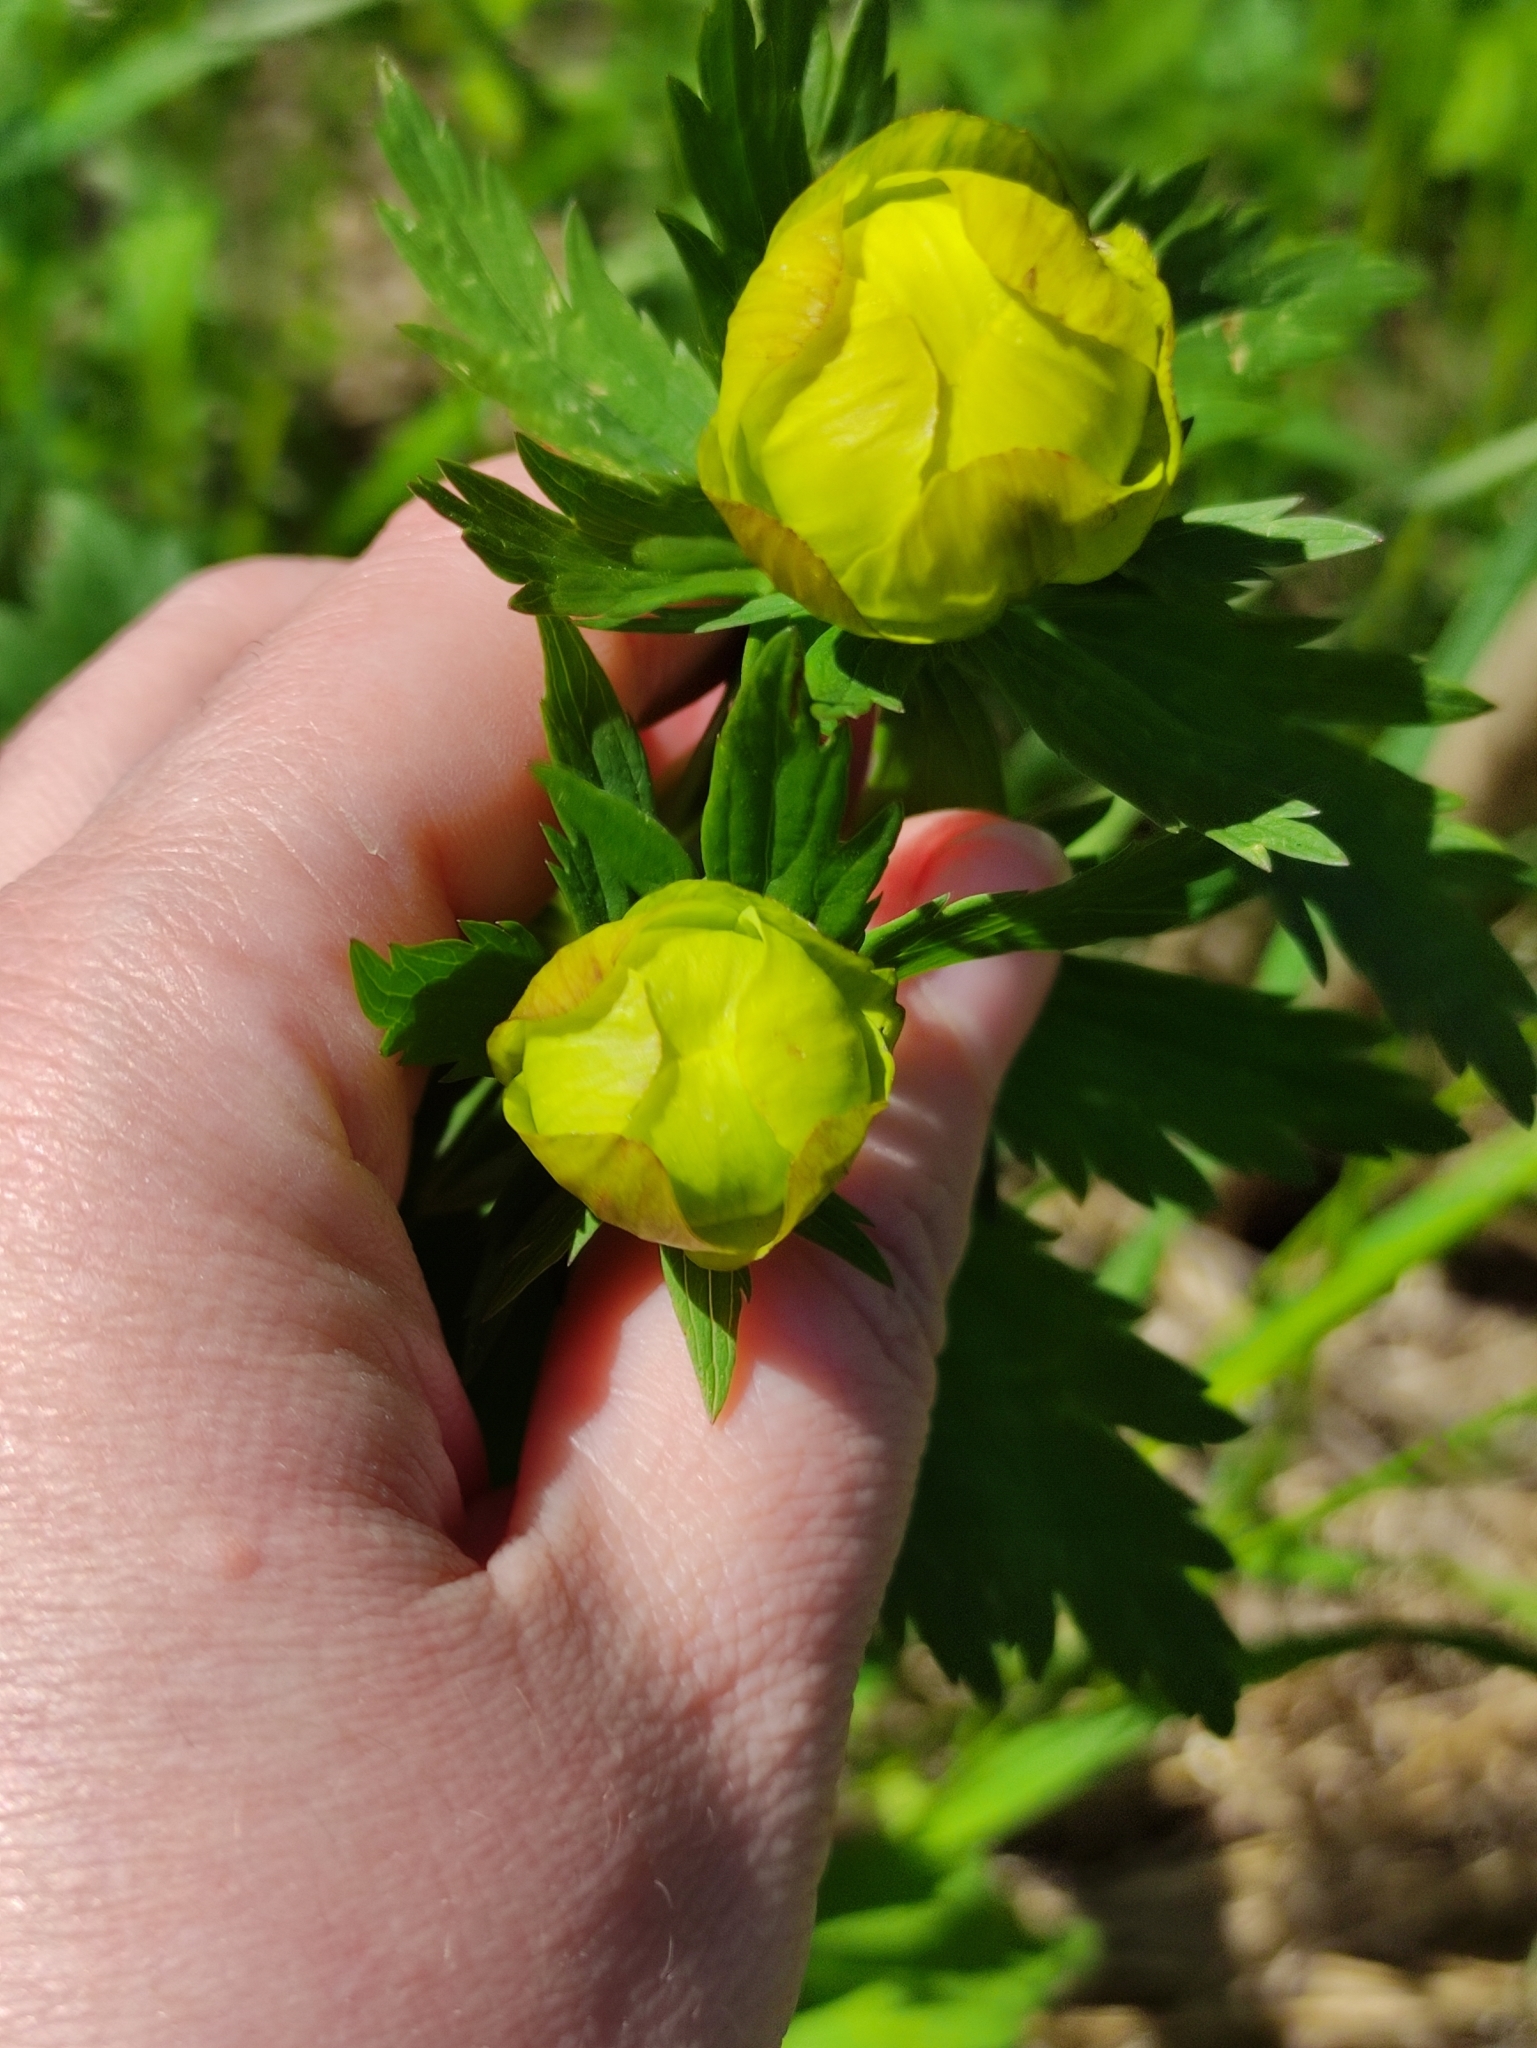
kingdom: Plantae
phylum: Tracheophyta
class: Magnoliopsida
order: Ranunculales
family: Ranunculaceae
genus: Trollius
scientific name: Trollius europaeus
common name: European globeflower
